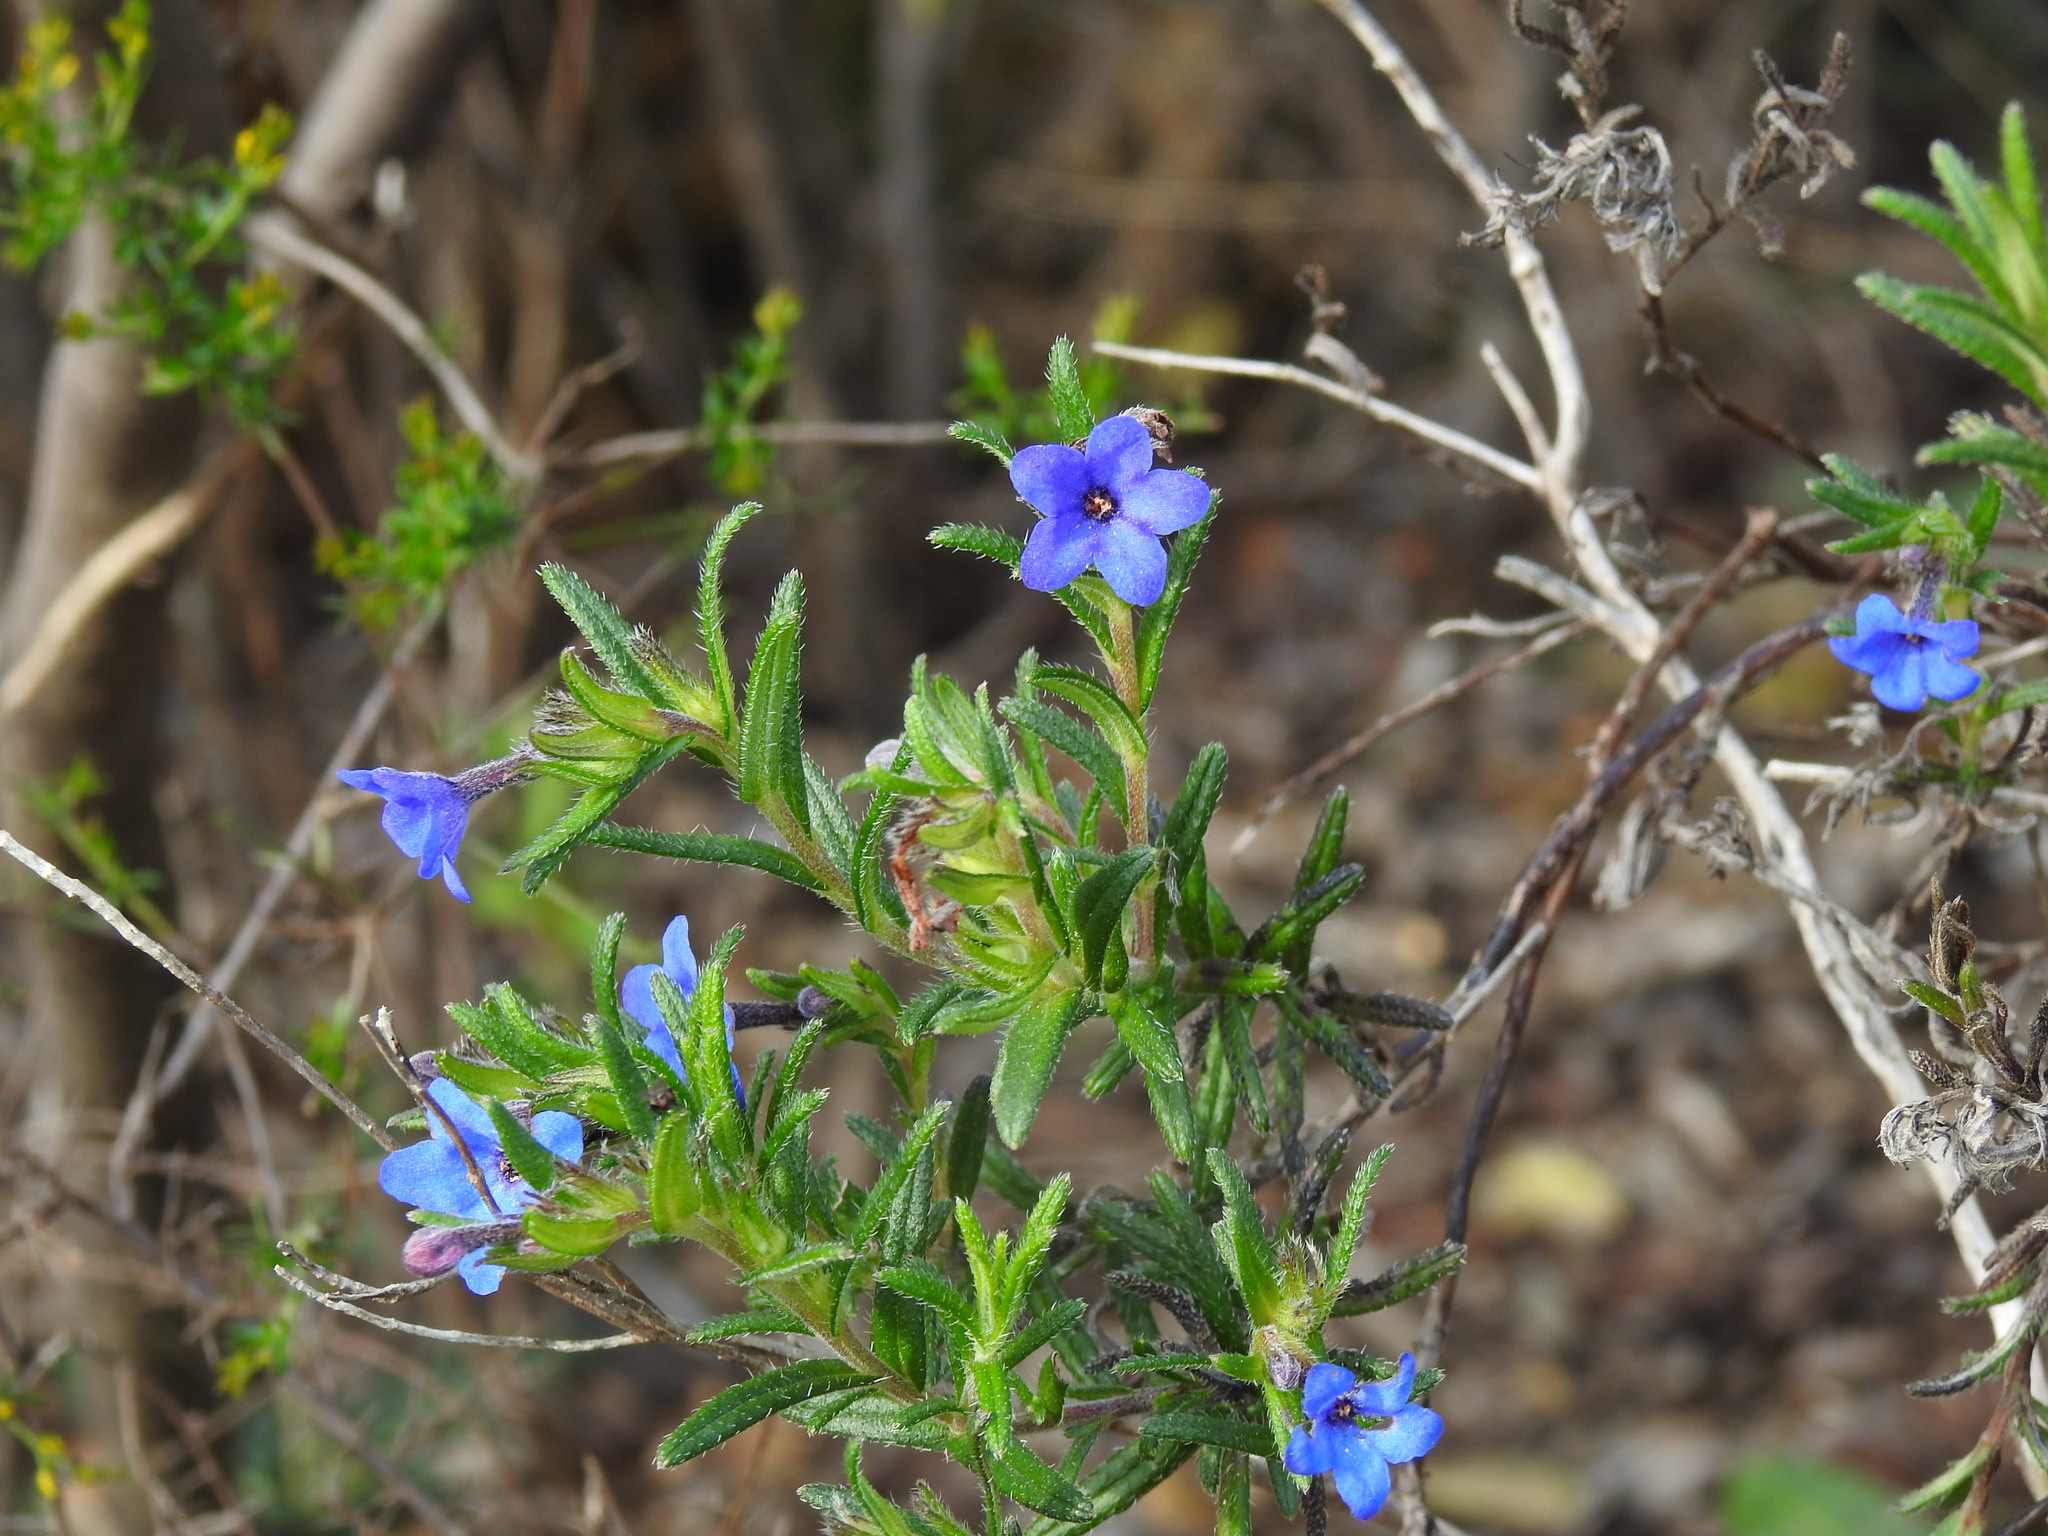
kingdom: Plantae
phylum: Tracheophyta
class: Magnoliopsida
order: Boraginales
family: Boraginaceae
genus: Glandora
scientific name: Glandora prostrata
